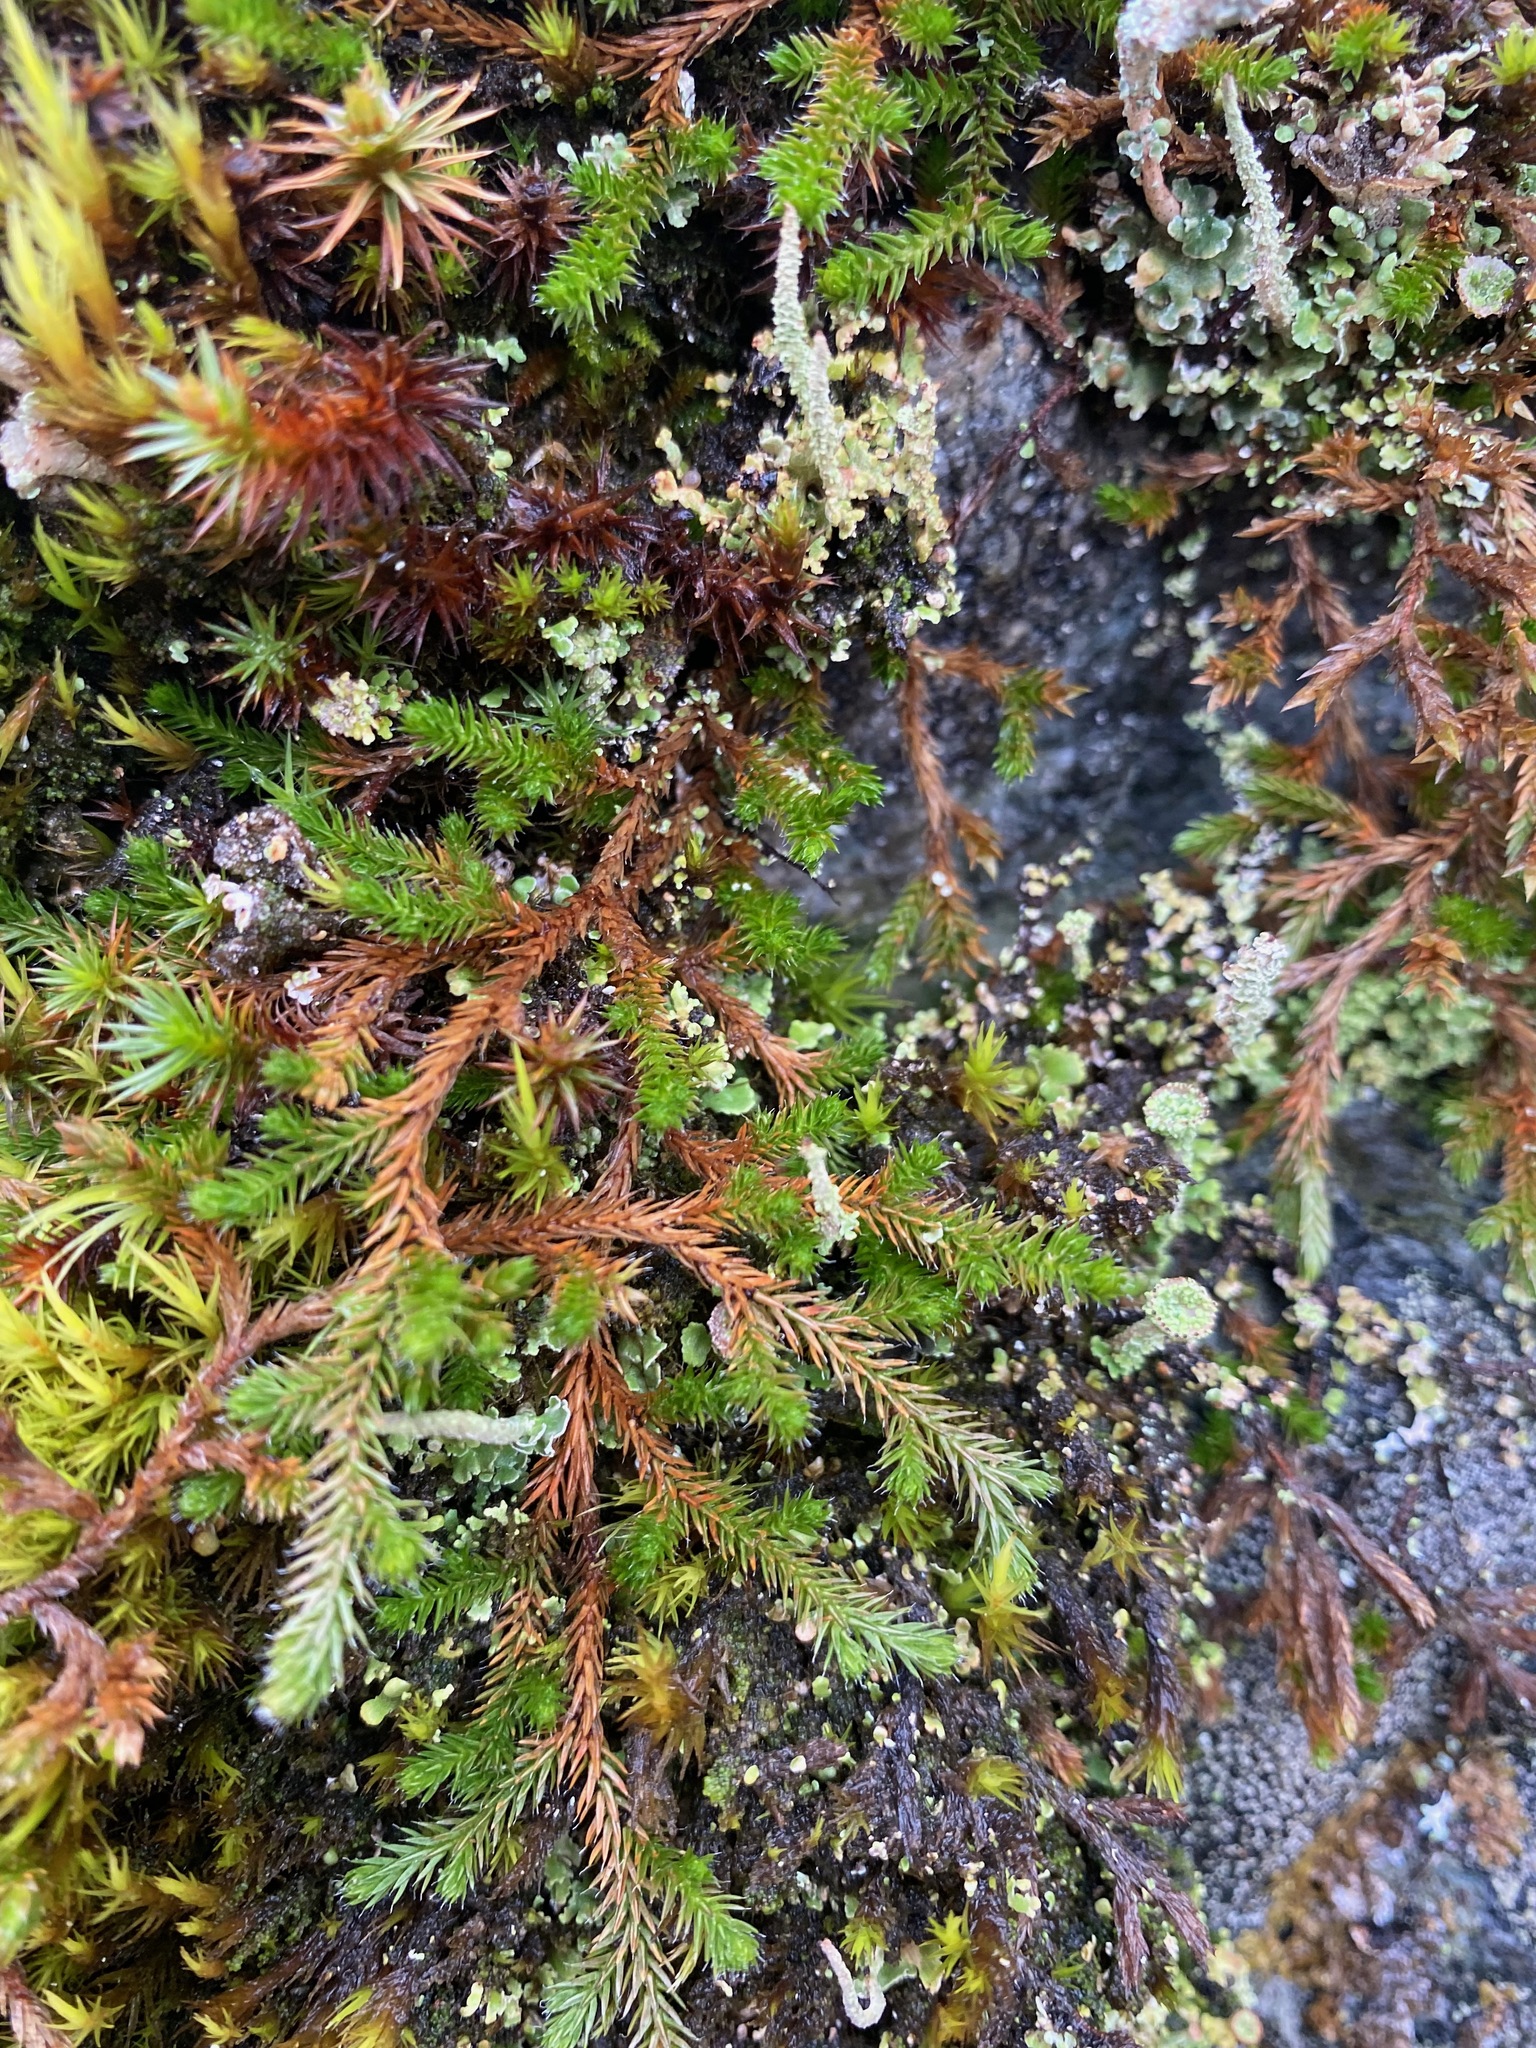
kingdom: Plantae
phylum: Tracheophyta
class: Lycopodiopsida
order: Selaginellales
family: Selaginellaceae
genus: Selaginella
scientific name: Selaginella wallacei
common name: Wallace's selaginella
